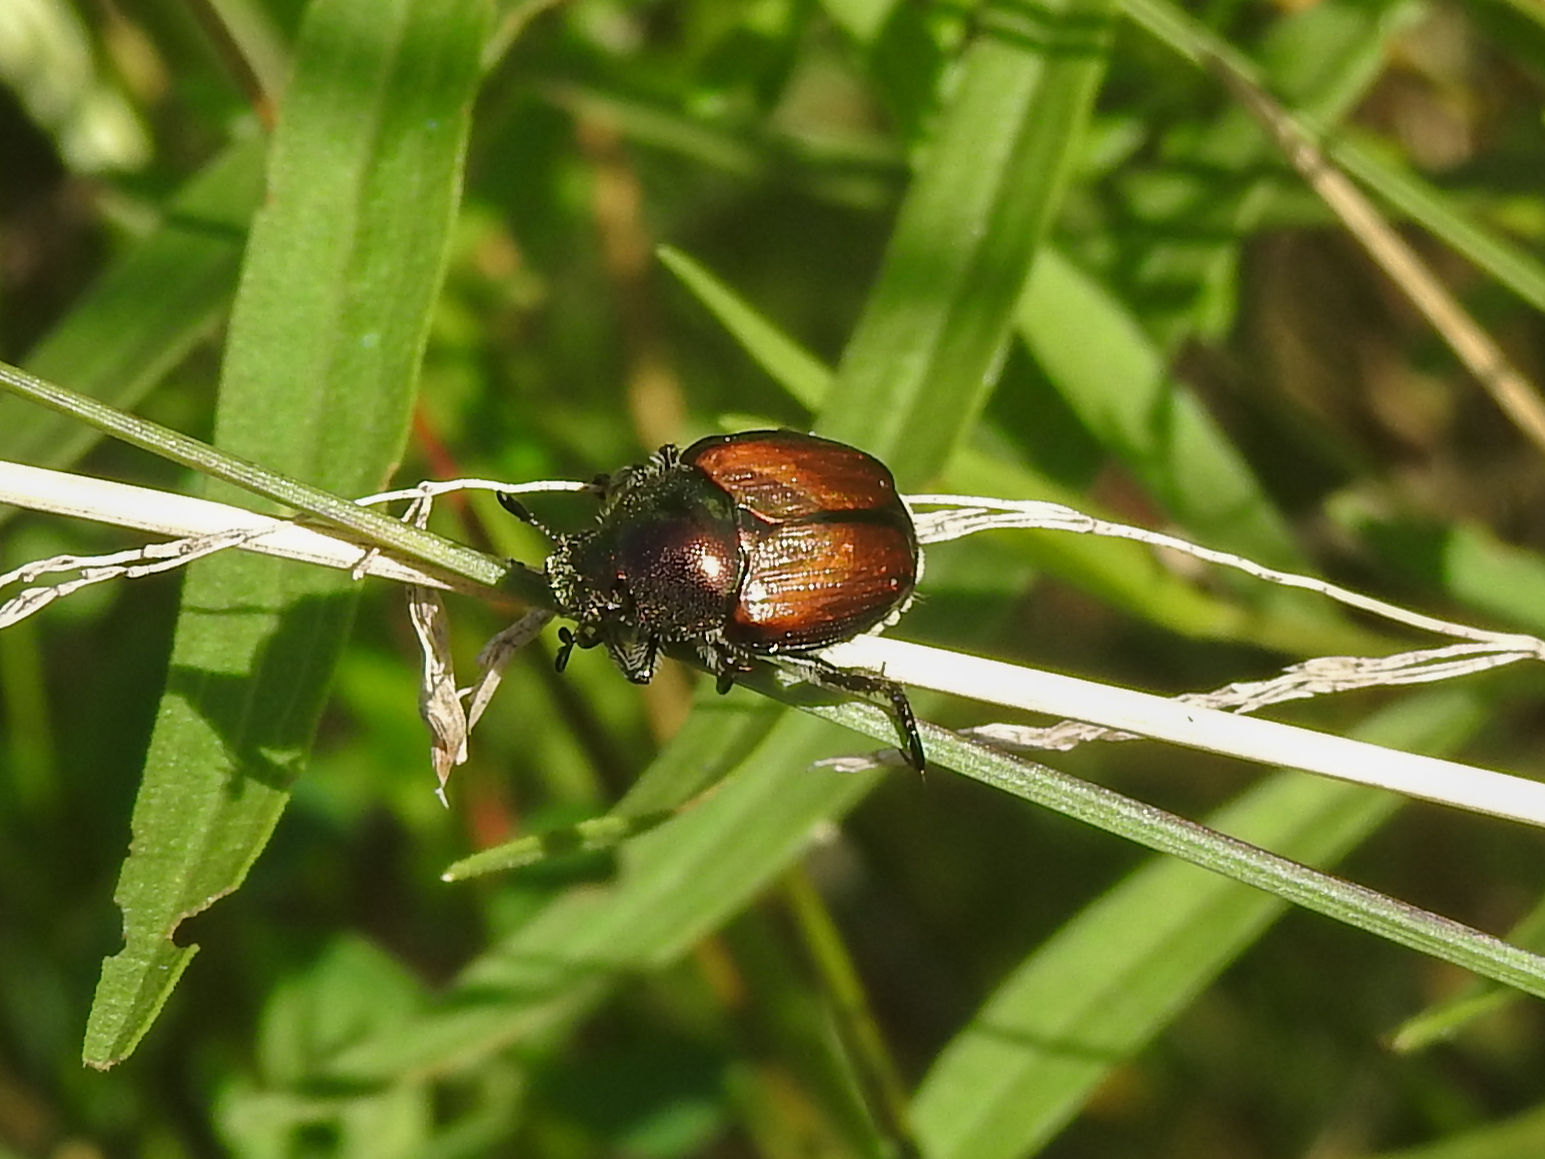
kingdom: Animalia
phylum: Arthropoda
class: Insecta
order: Coleoptera
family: Scarabaeidae
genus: Popillia
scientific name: Popillia japonica
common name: Japanese beetle
